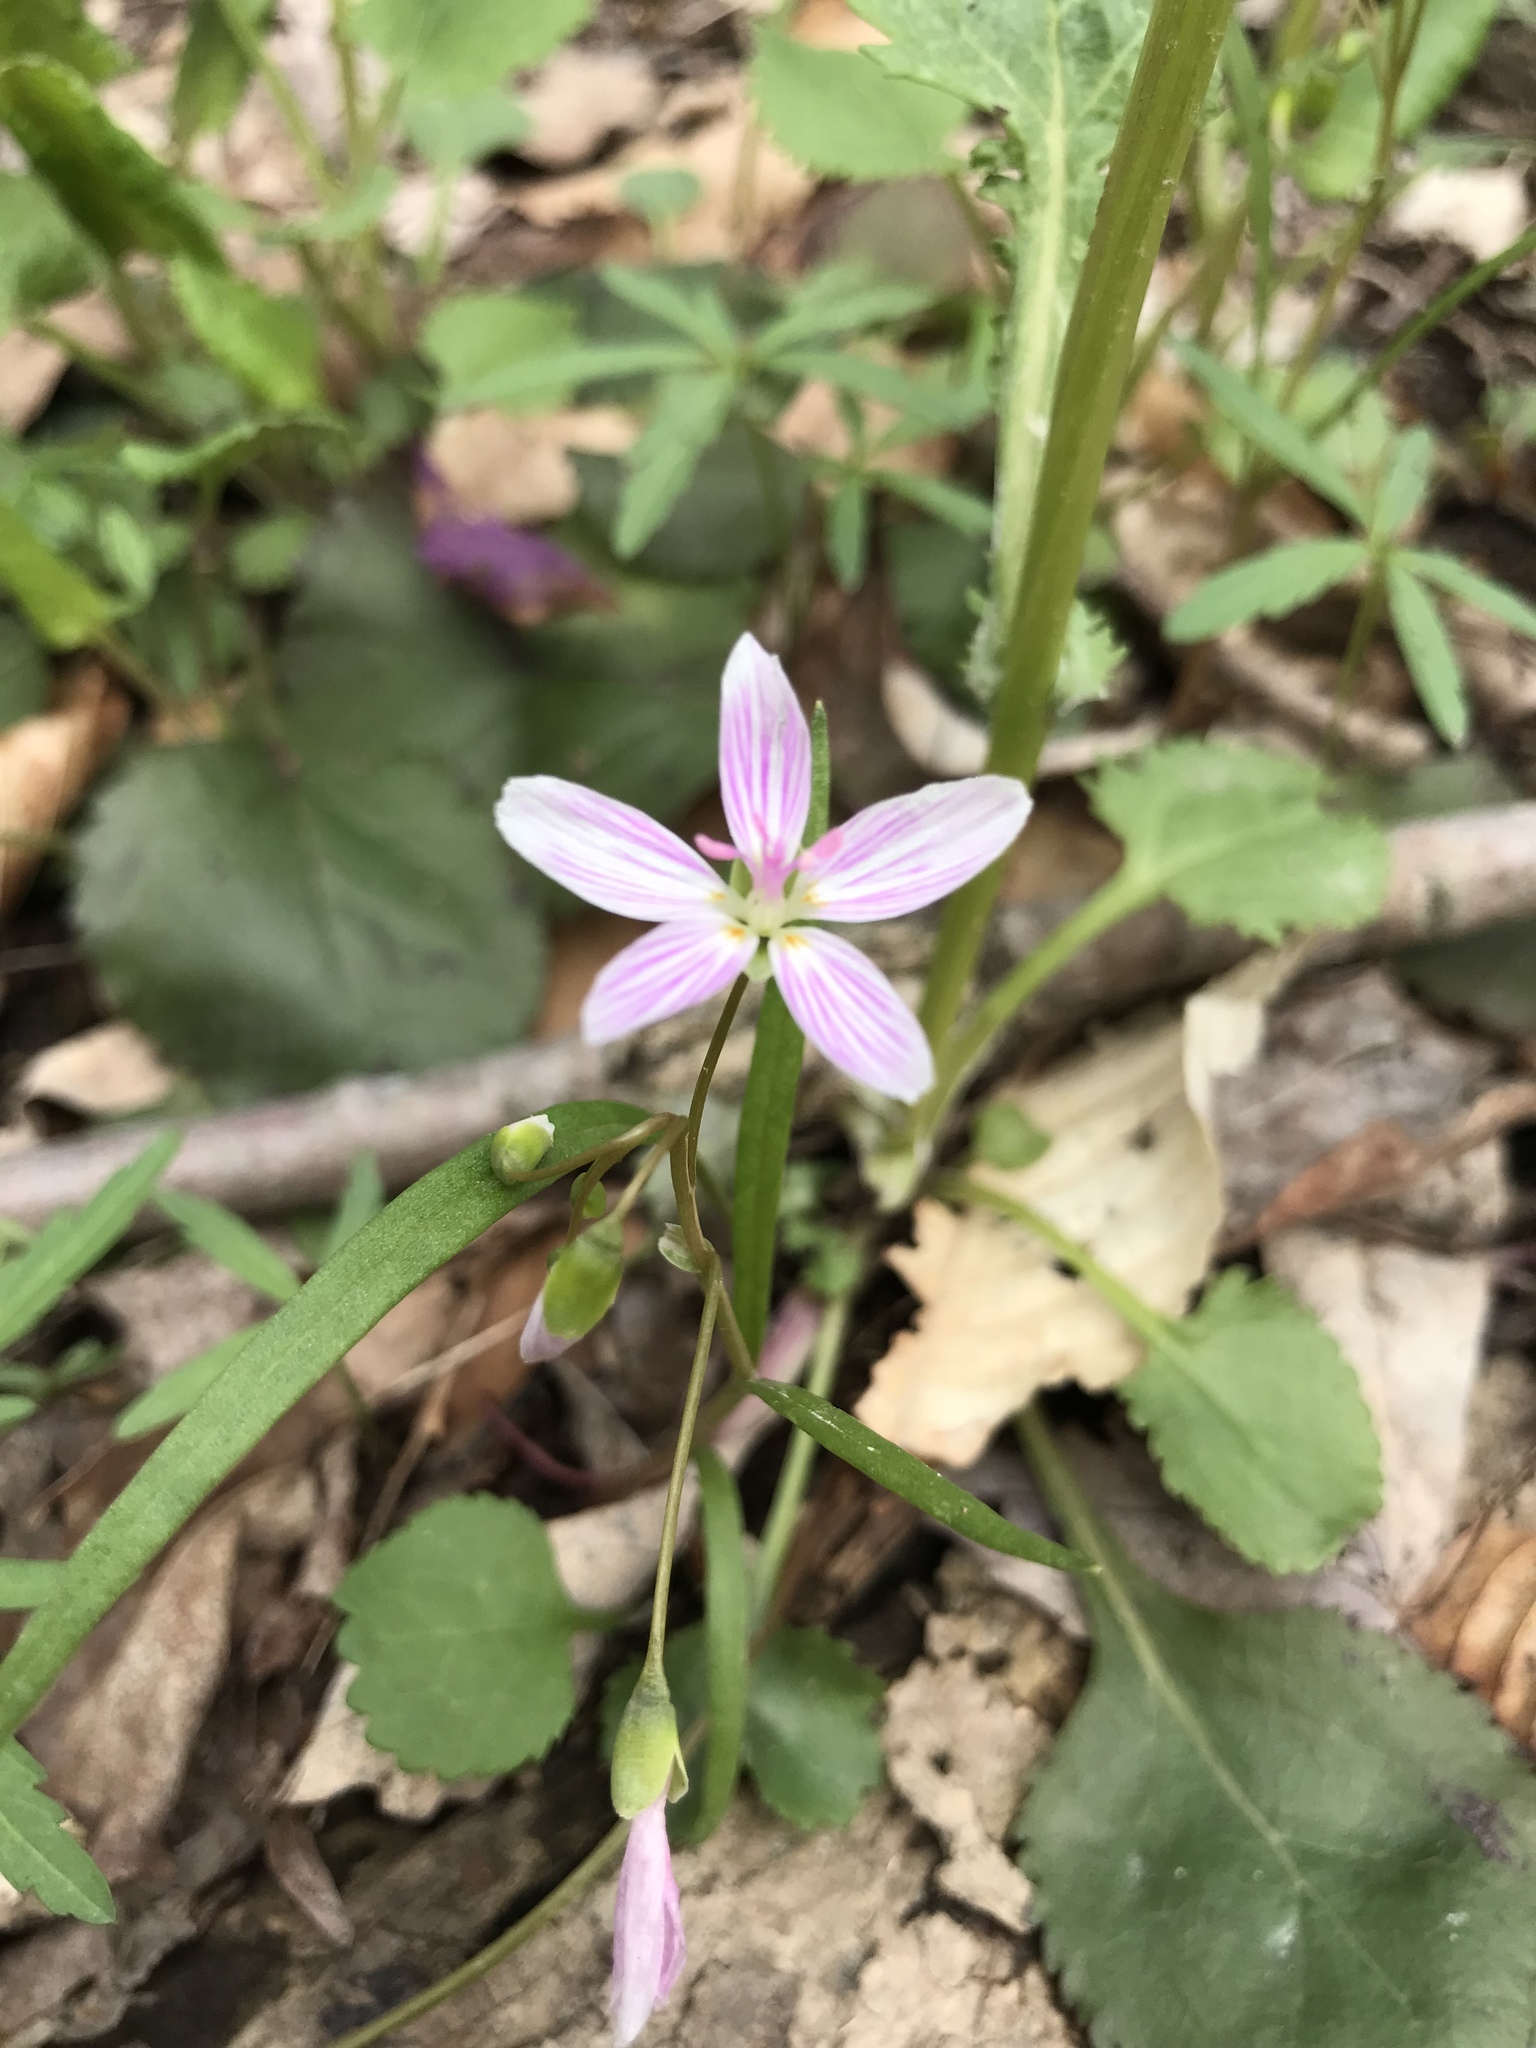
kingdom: Plantae
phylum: Tracheophyta
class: Magnoliopsida
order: Caryophyllales
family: Montiaceae
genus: Claytonia
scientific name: Claytonia virginica
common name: Virginia springbeauty
